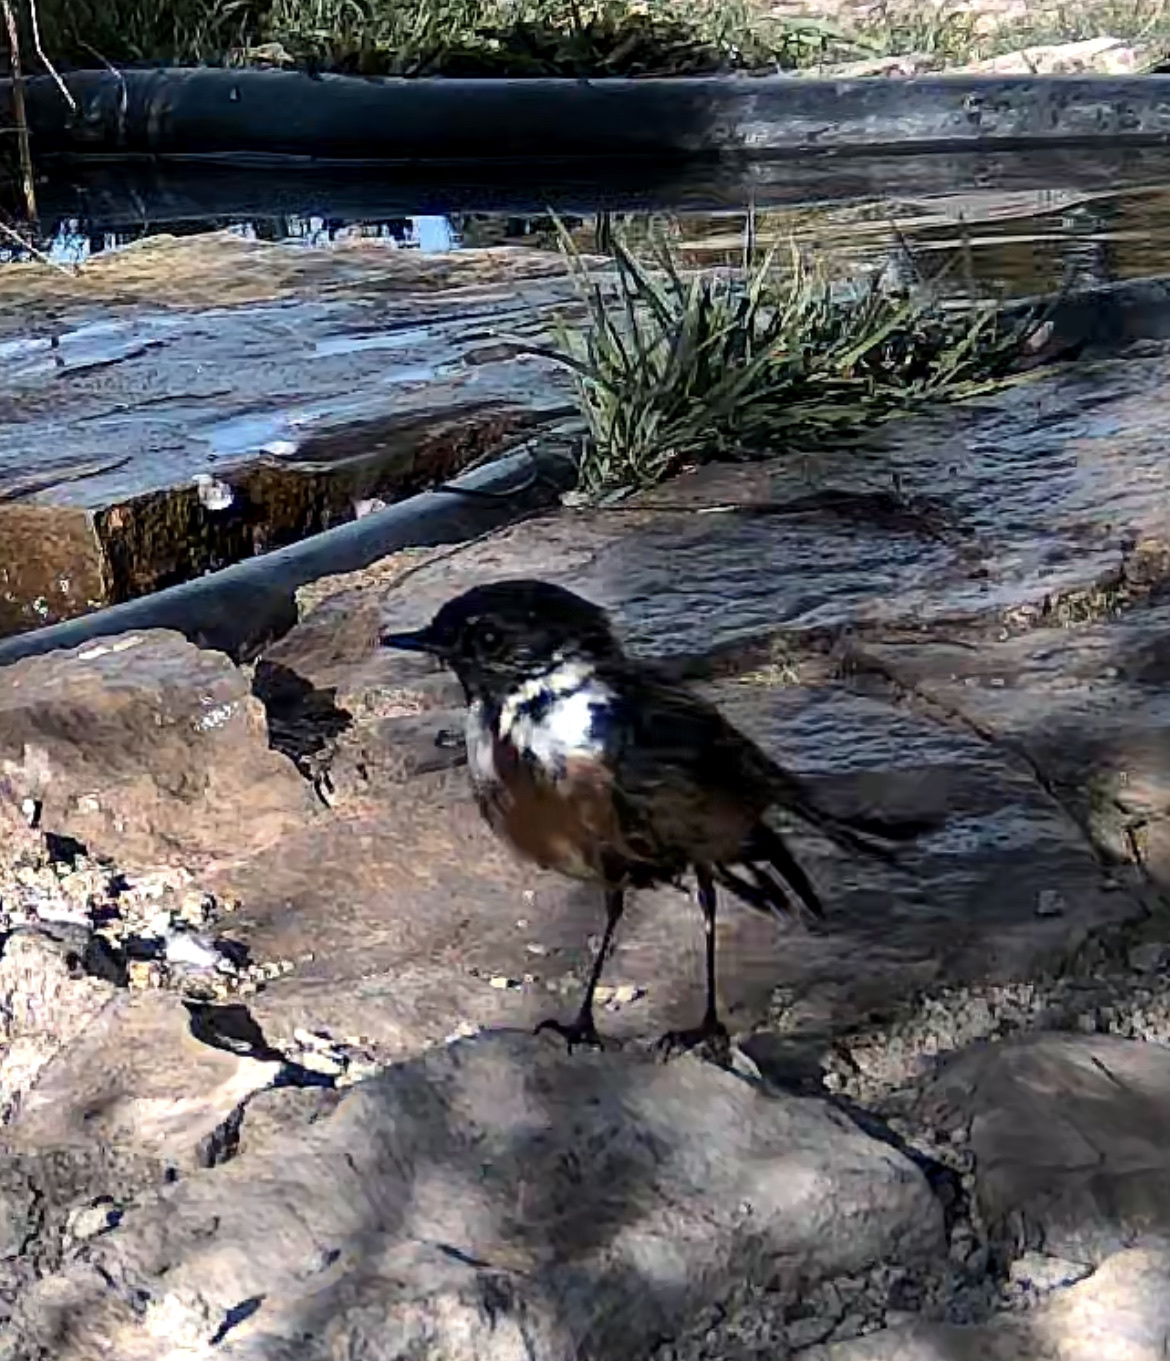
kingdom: Animalia
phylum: Chordata
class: Aves
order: Passeriformes
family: Muscicapidae
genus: Saxicola
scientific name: Saxicola rubicola
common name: European stonechat
